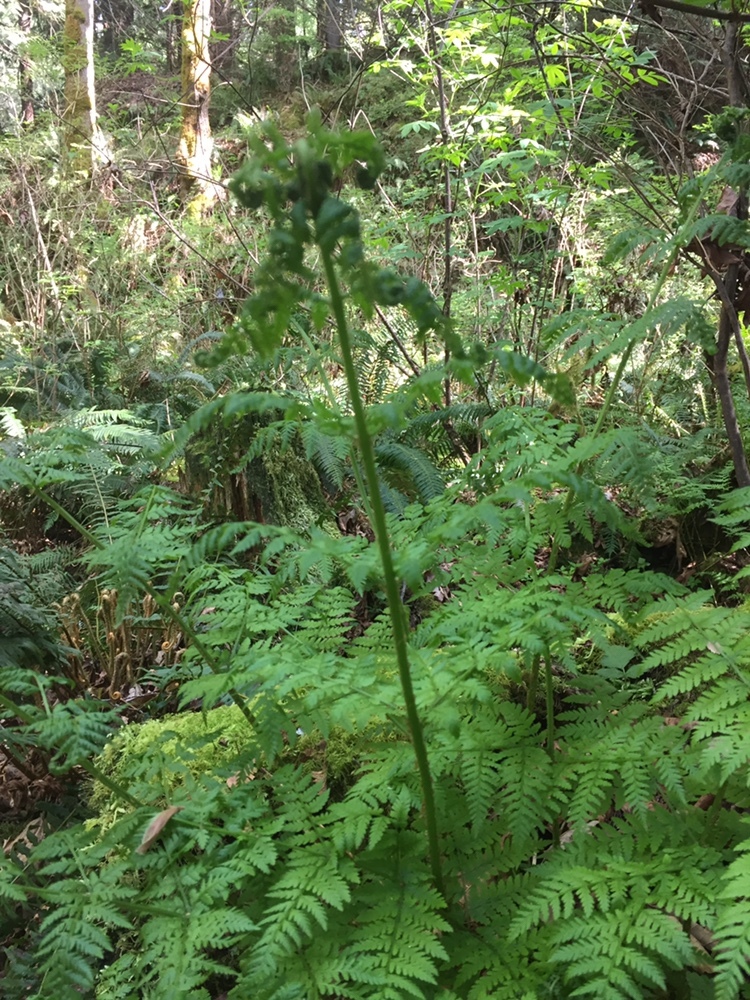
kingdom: Plantae
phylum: Tracheophyta
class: Polypodiopsida
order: Polypodiales
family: Dryopteridaceae
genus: Dryopteris
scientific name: Dryopteris expansa
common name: Northern buckler fern
